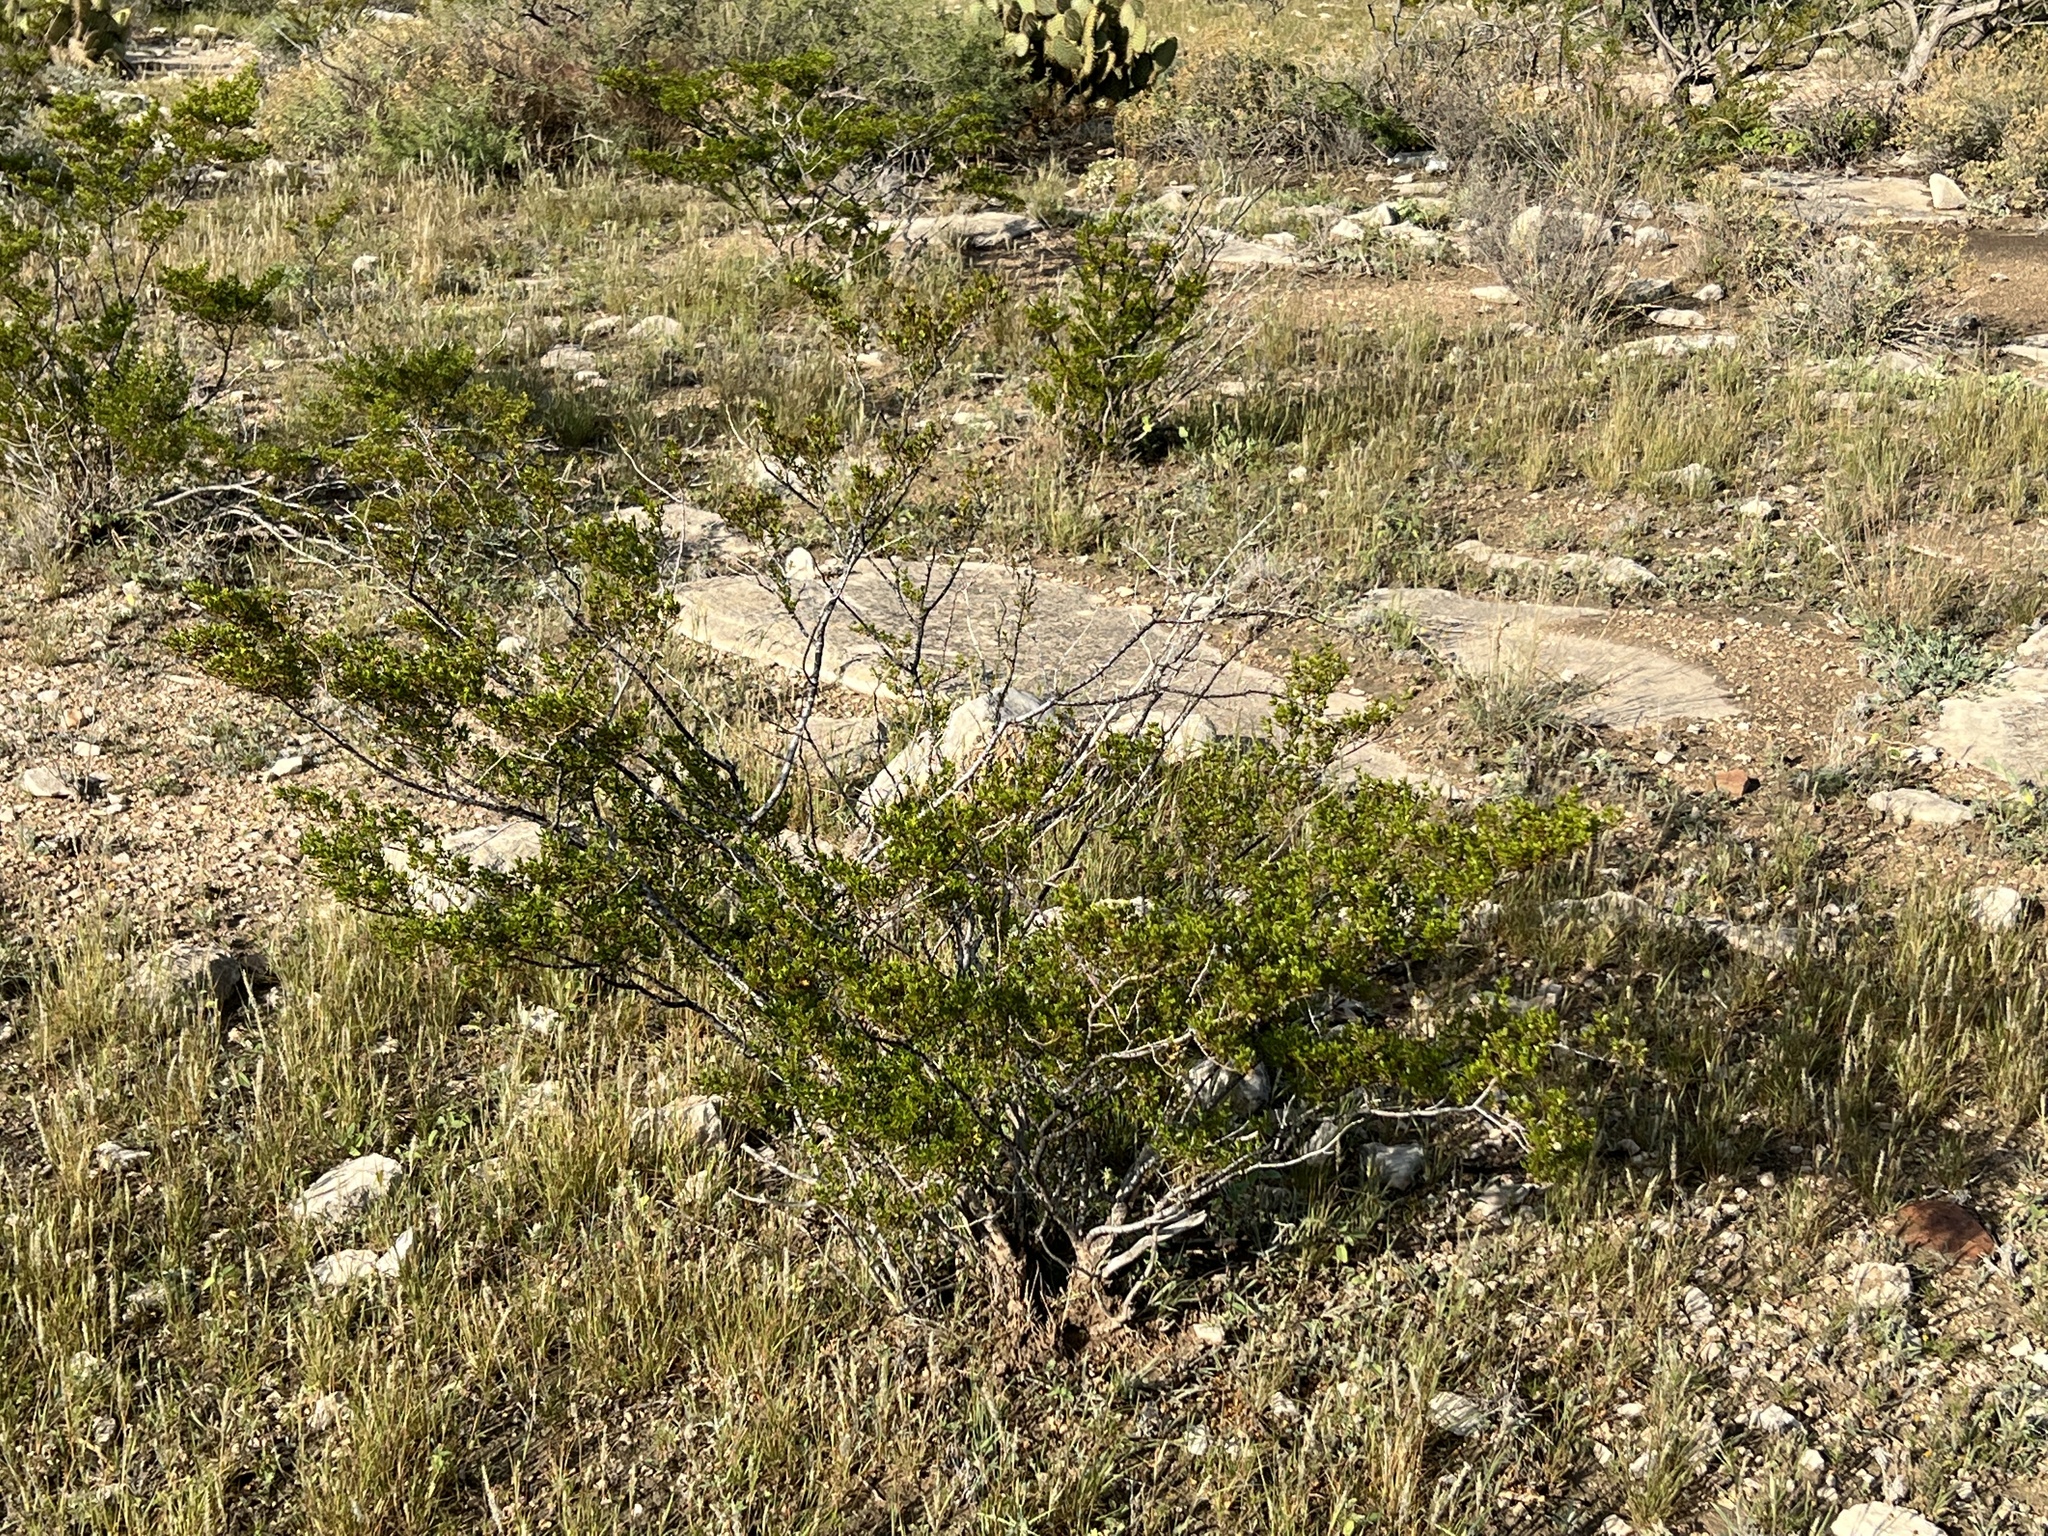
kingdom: Plantae
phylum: Tracheophyta
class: Magnoliopsida
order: Zygophyllales
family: Zygophyllaceae
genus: Larrea
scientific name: Larrea tridentata
